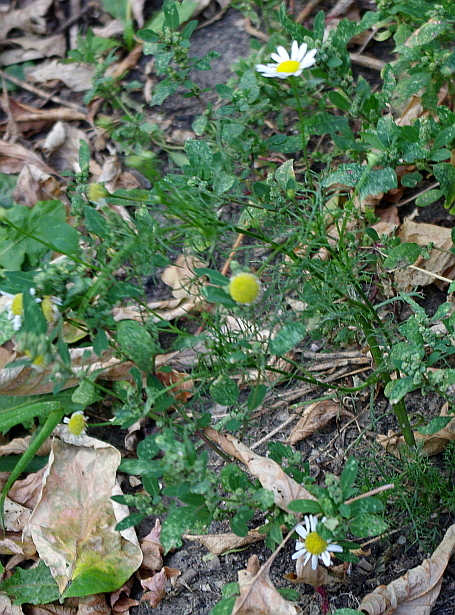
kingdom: Plantae
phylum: Tracheophyta
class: Magnoliopsida
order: Asterales
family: Asteraceae
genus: Tripleurospermum
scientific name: Tripleurospermum inodorum
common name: Scentless mayweed
